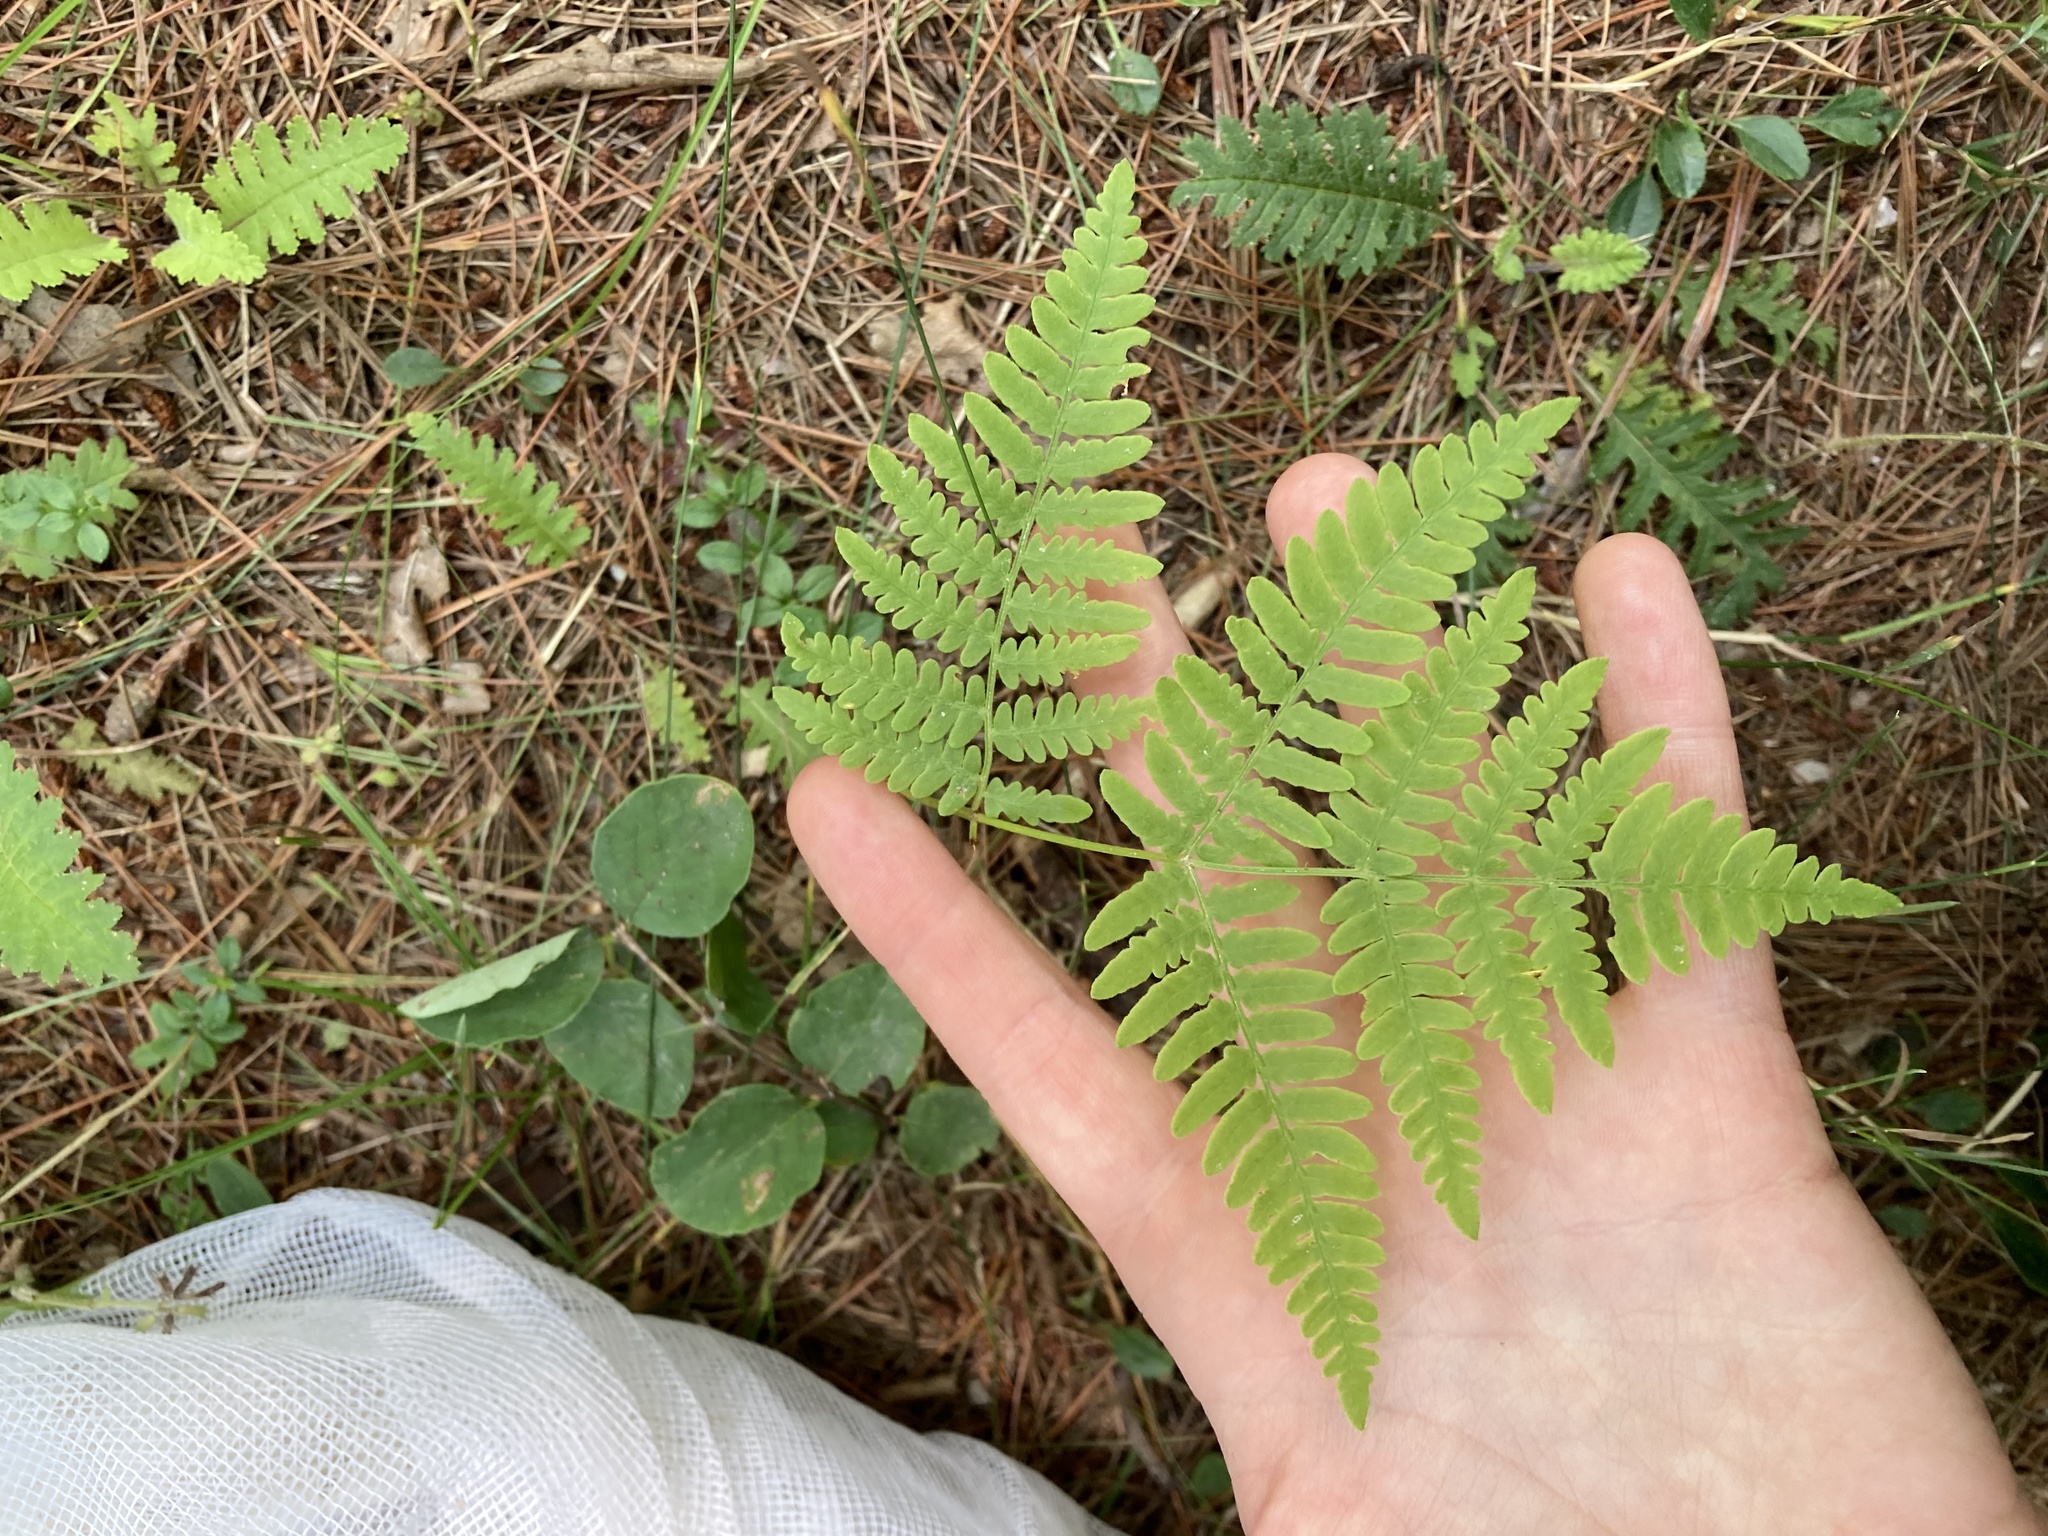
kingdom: Plantae
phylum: Tracheophyta
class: Polypodiopsida
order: Polypodiales
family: Dennstaedtiaceae
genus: Pteridium
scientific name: Pteridium aquilinum
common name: Bracken
